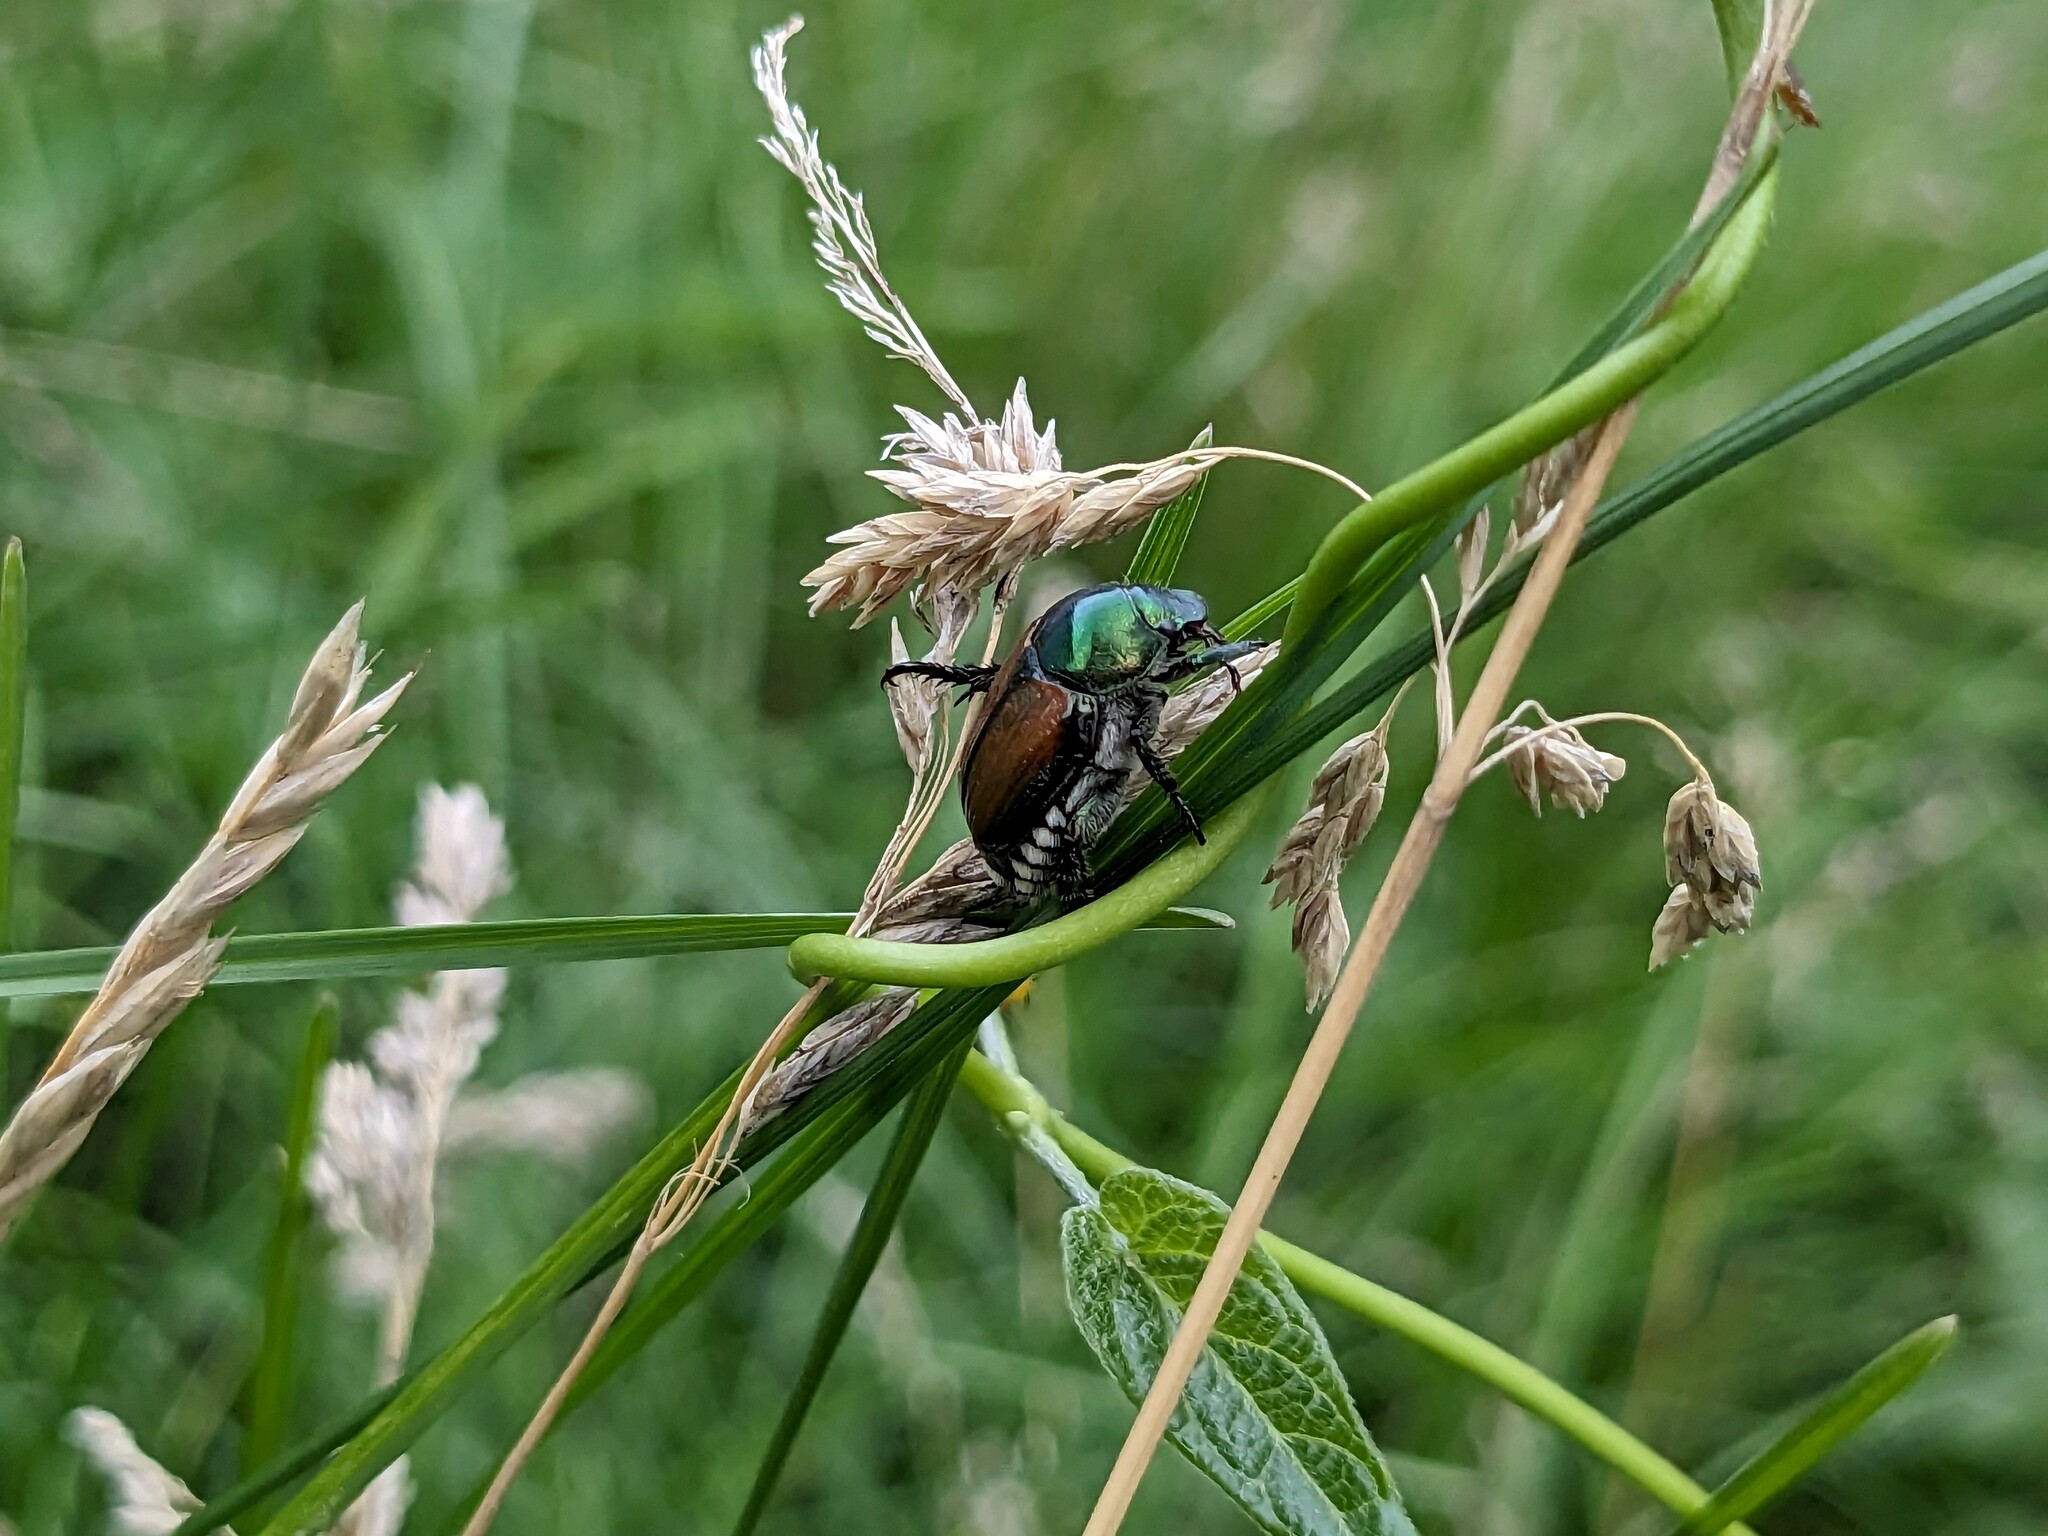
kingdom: Animalia
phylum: Arthropoda
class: Insecta
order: Coleoptera
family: Scarabaeidae
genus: Popillia
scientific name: Popillia japonica
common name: Japanese beetle
